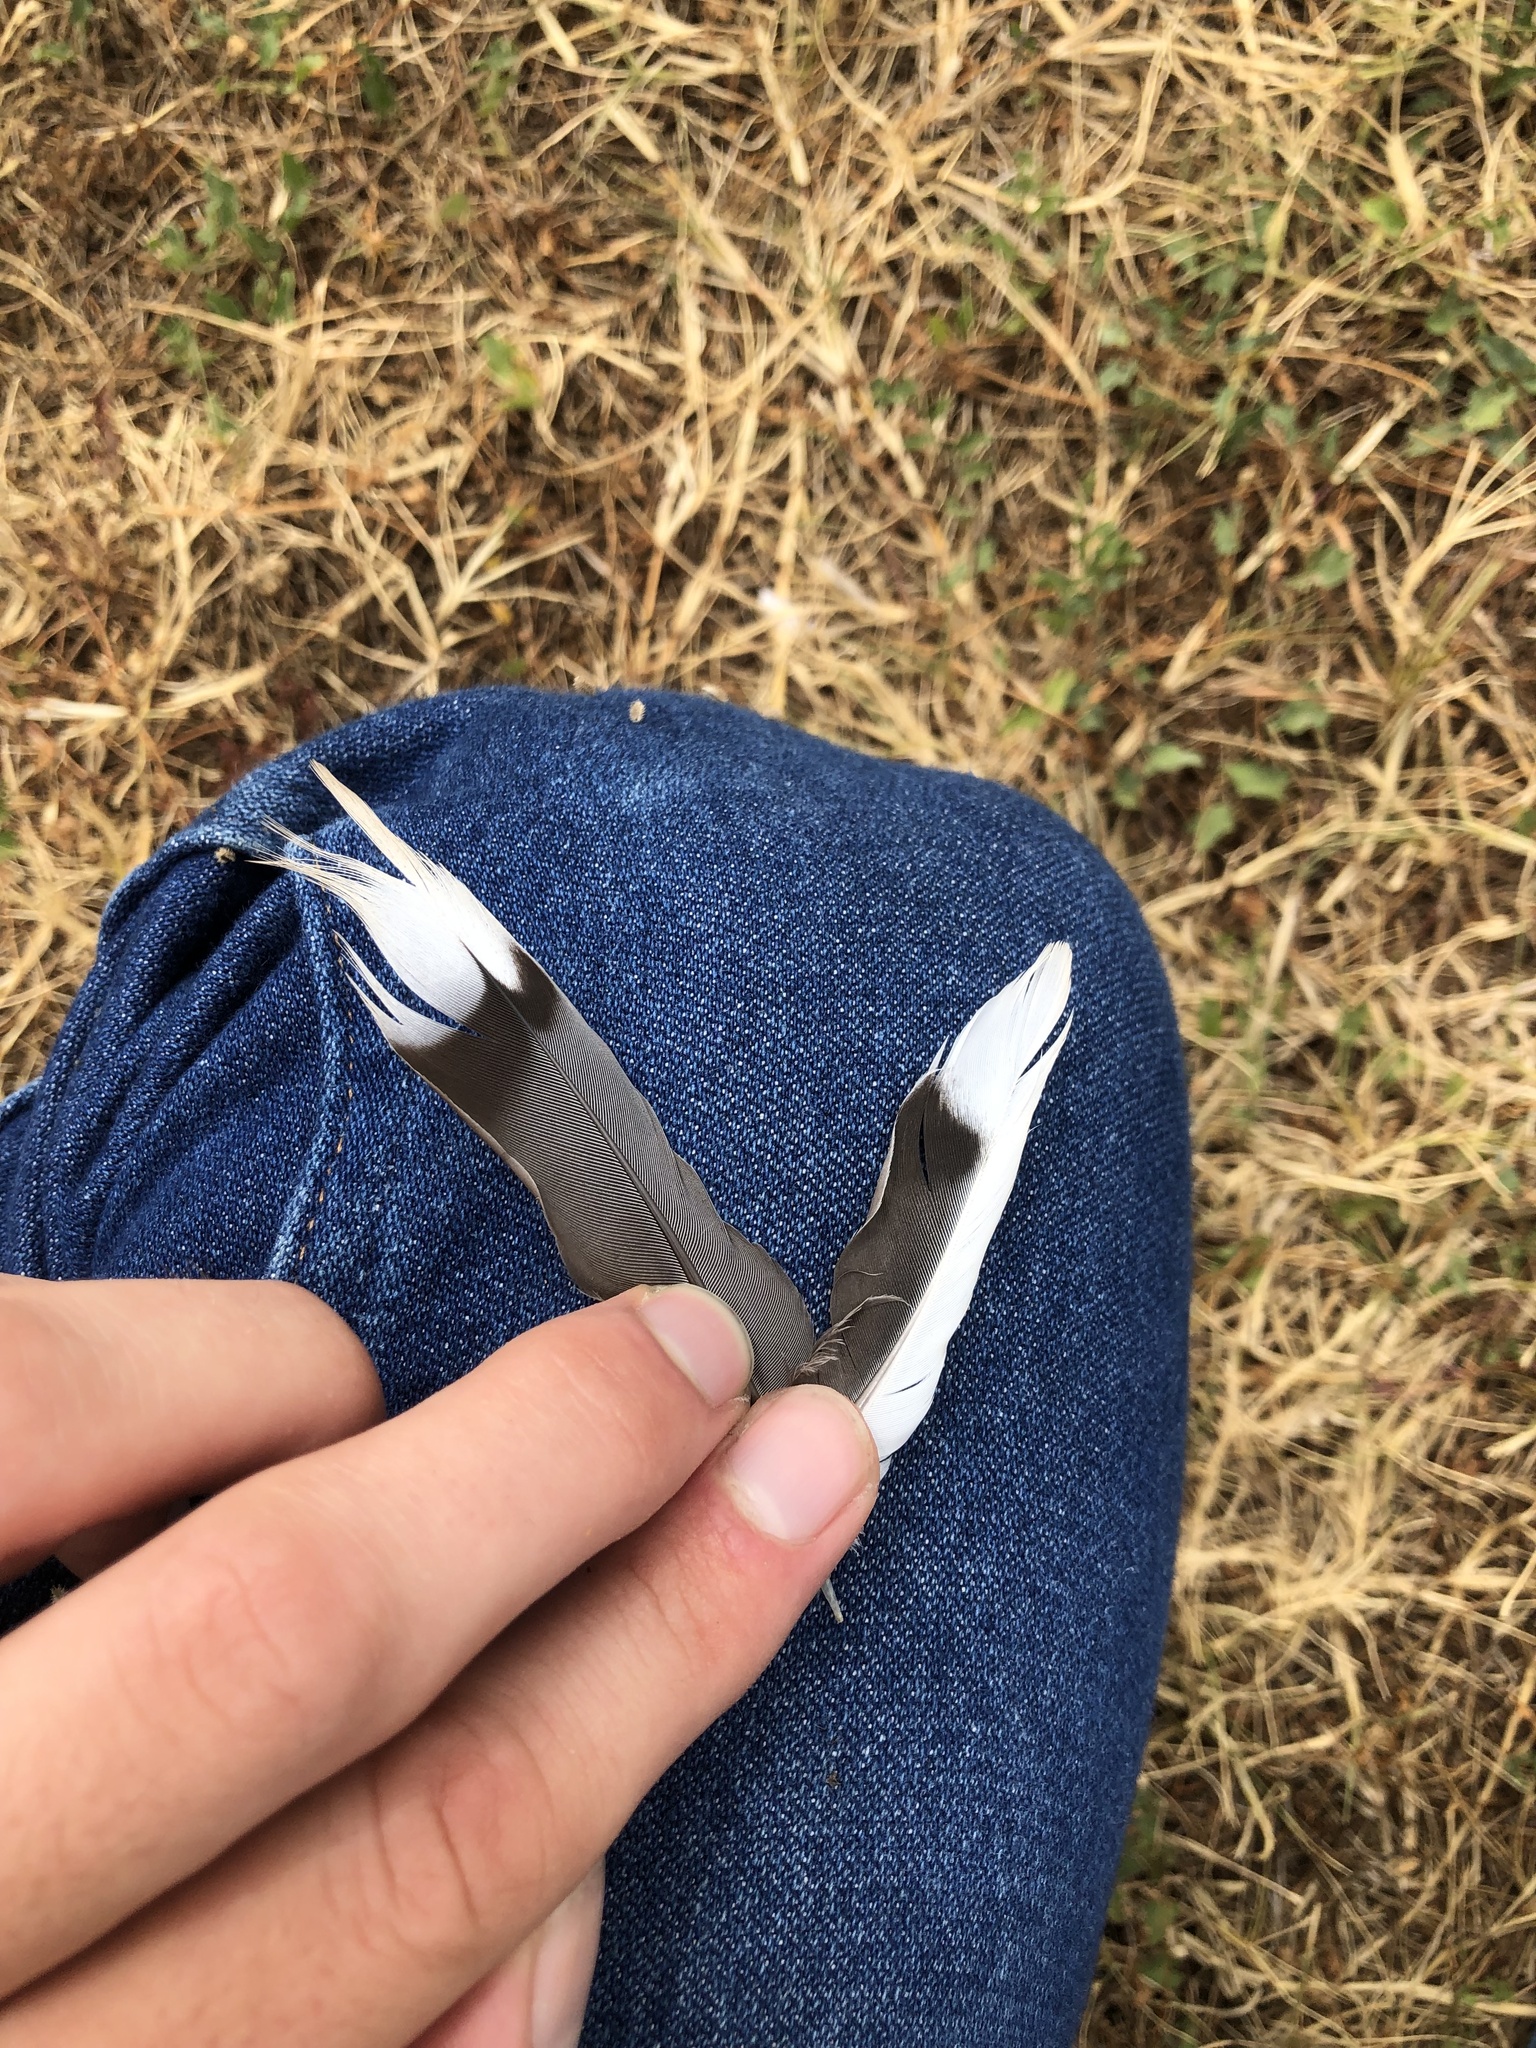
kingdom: Animalia
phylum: Chordata
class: Aves
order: Columbiformes
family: Columbidae
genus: Zenaida
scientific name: Zenaida macroura
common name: Mourning dove
